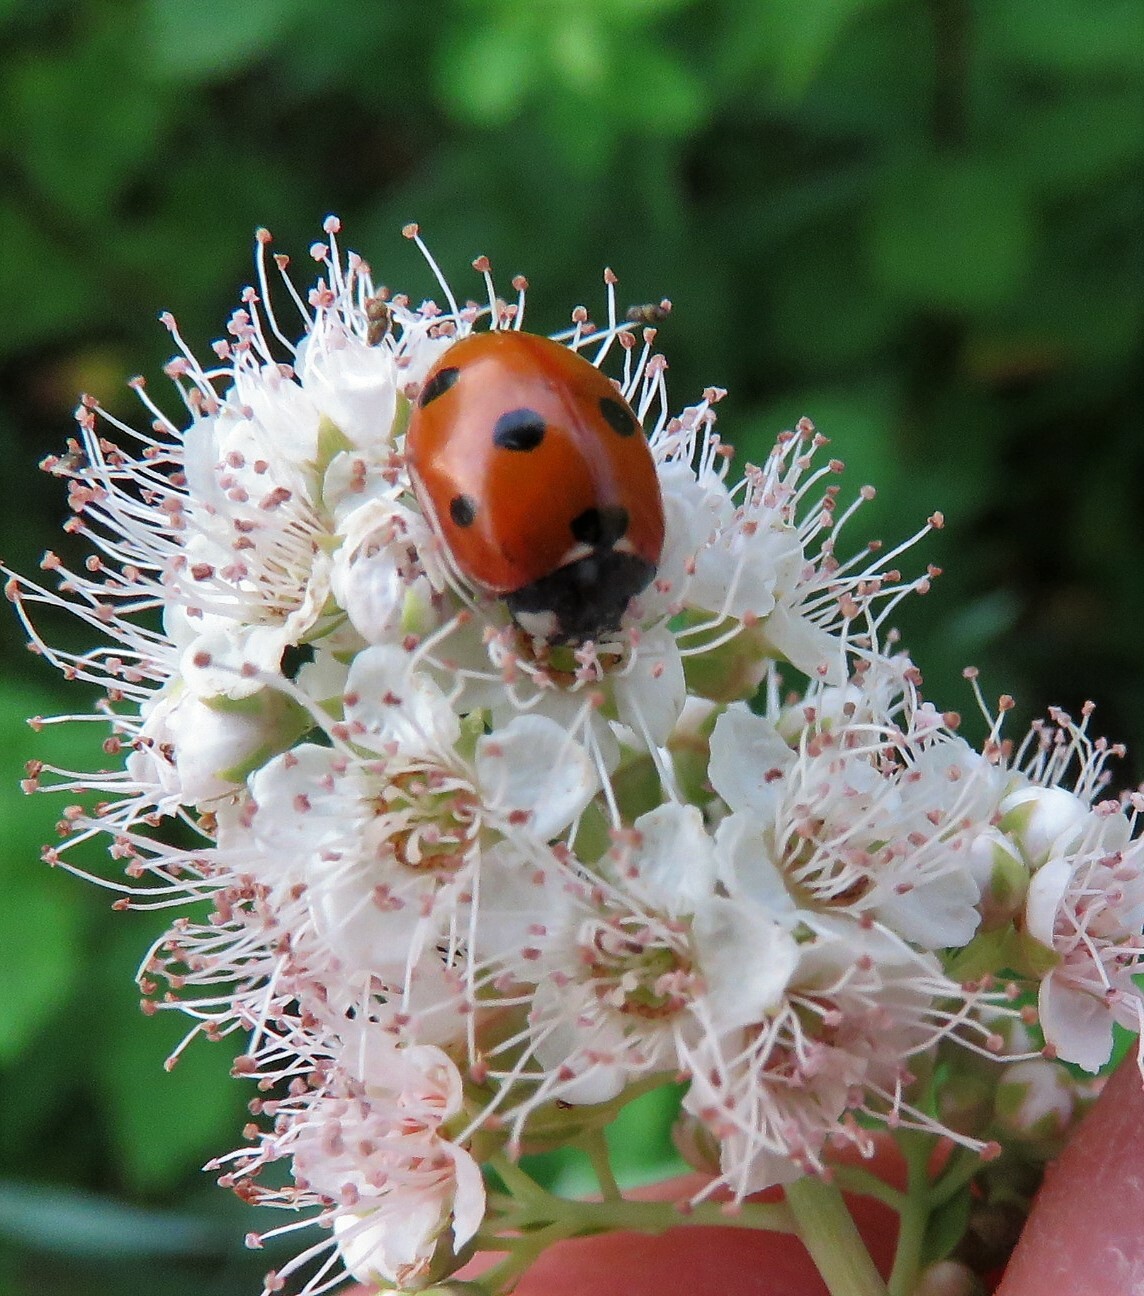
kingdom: Animalia
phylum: Arthropoda
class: Insecta
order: Coleoptera
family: Coccinellidae
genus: Coccinella
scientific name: Coccinella septempunctata
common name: Sevenspotted lady beetle
